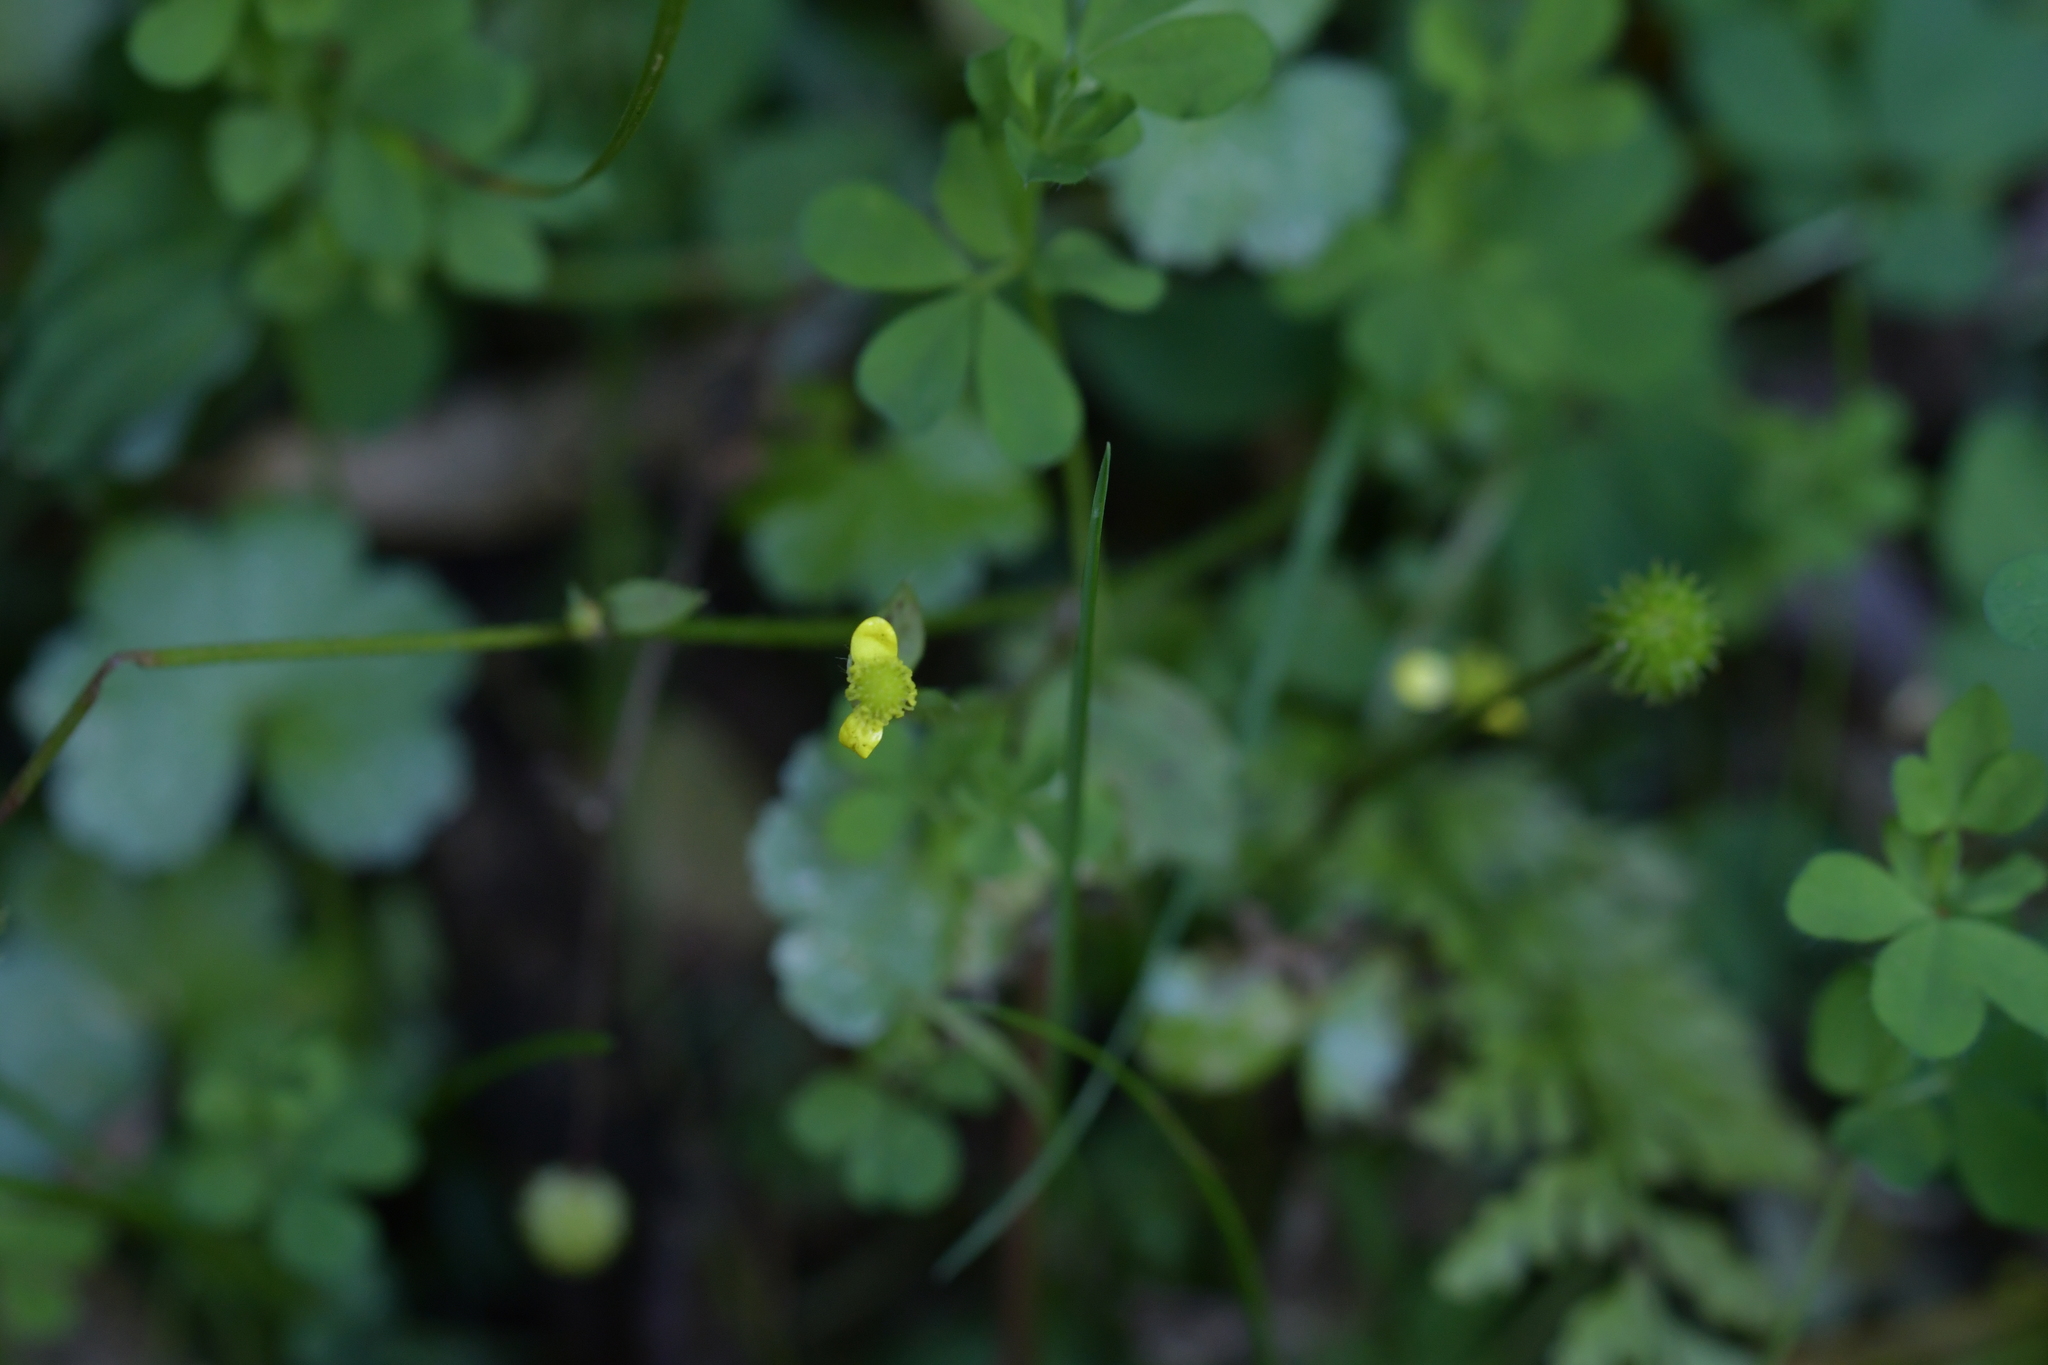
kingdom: Plantae
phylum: Tracheophyta
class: Magnoliopsida
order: Ranunculales
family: Ranunculaceae
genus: Ranunculus
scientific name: Ranunculus reflexus
